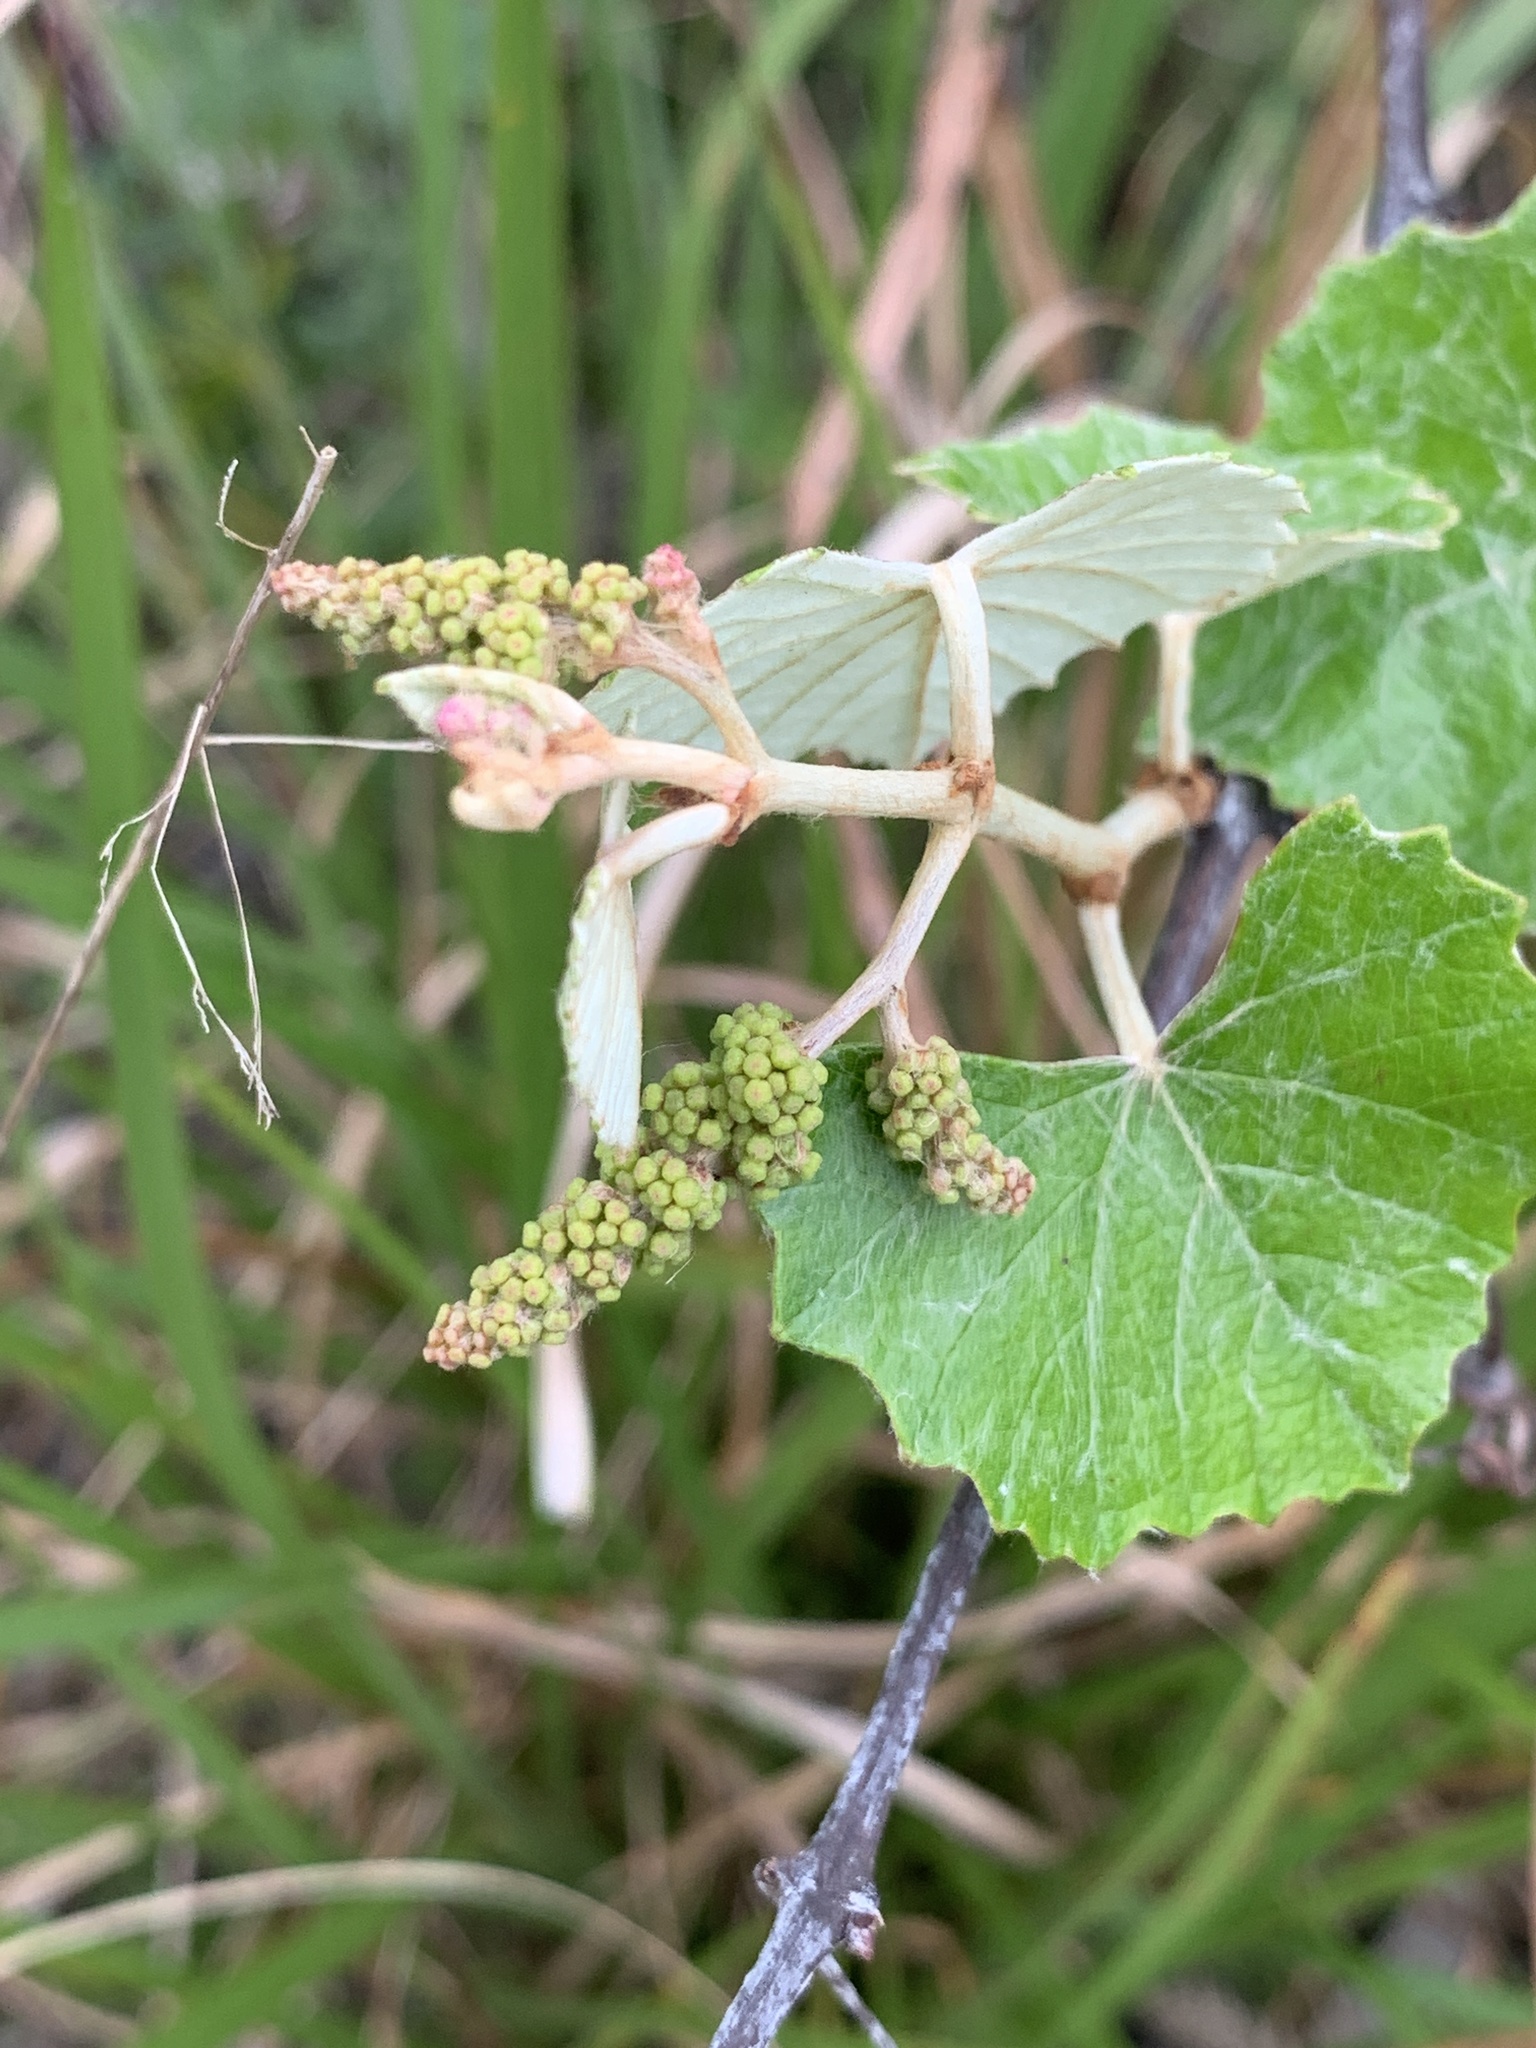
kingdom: Plantae
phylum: Tracheophyta
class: Magnoliopsida
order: Vitales
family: Vitaceae
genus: Vitis
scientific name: Vitis shuttleworthii
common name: Caloosa grape
